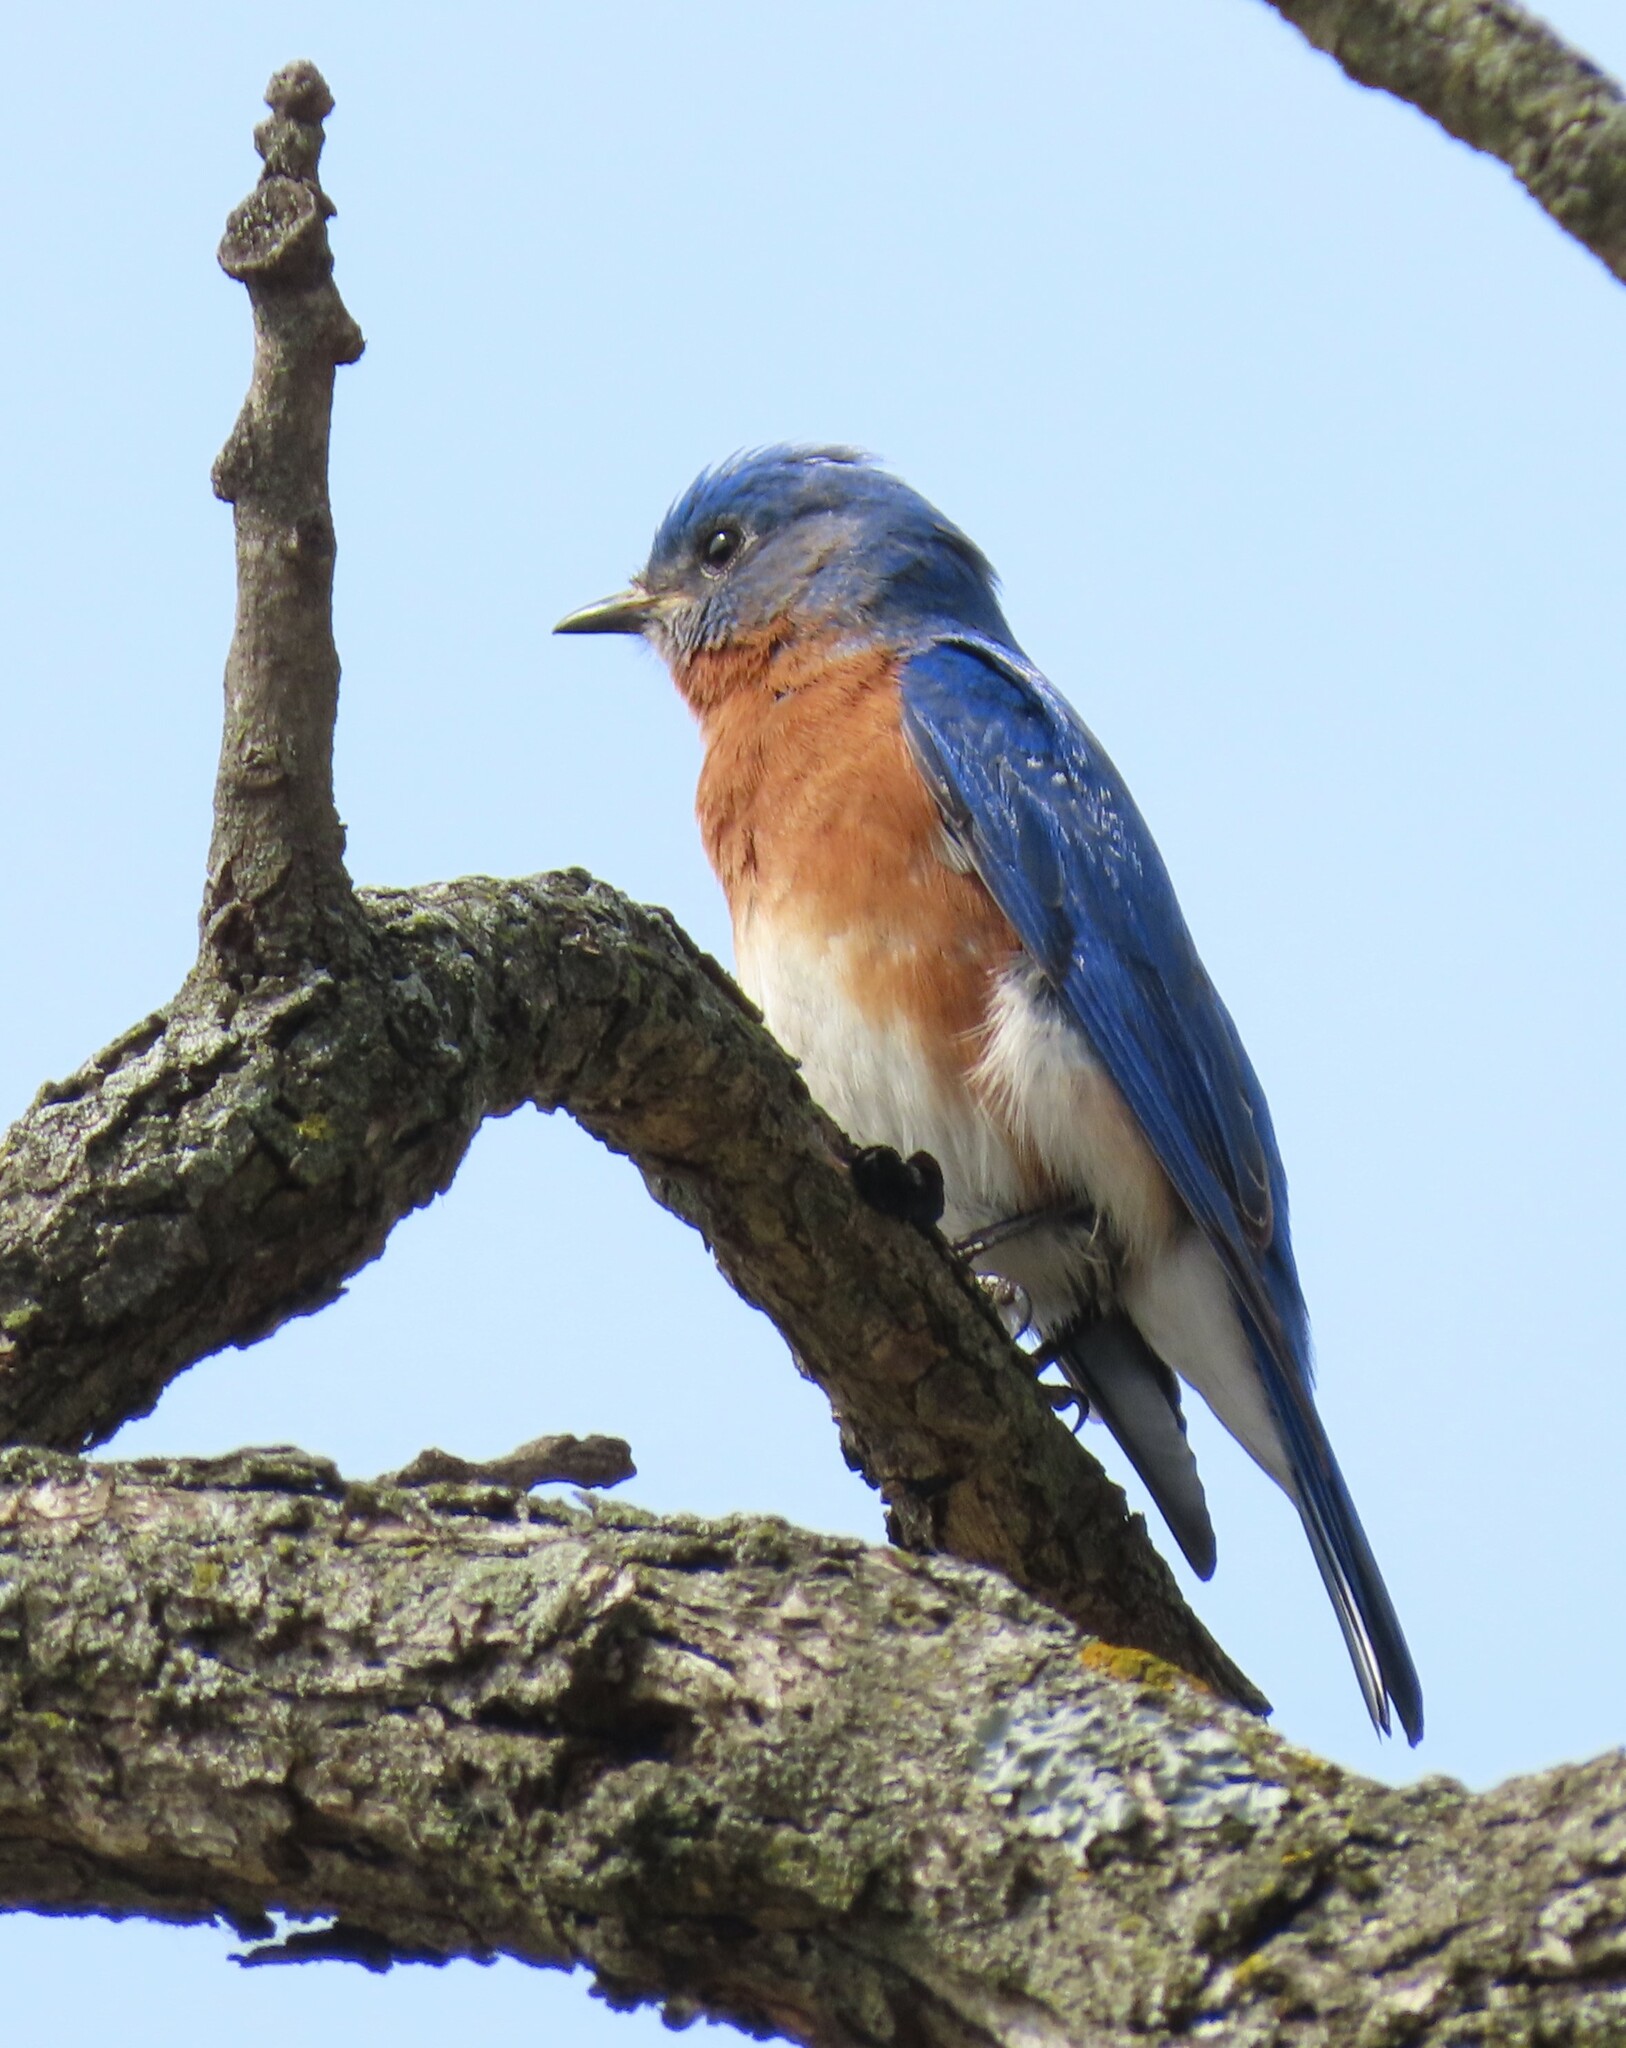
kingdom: Animalia
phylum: Chordata
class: Aves
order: Passeriformes
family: Turdidae
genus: Sialia
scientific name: Sialia sialis
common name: Eastern bluebird
